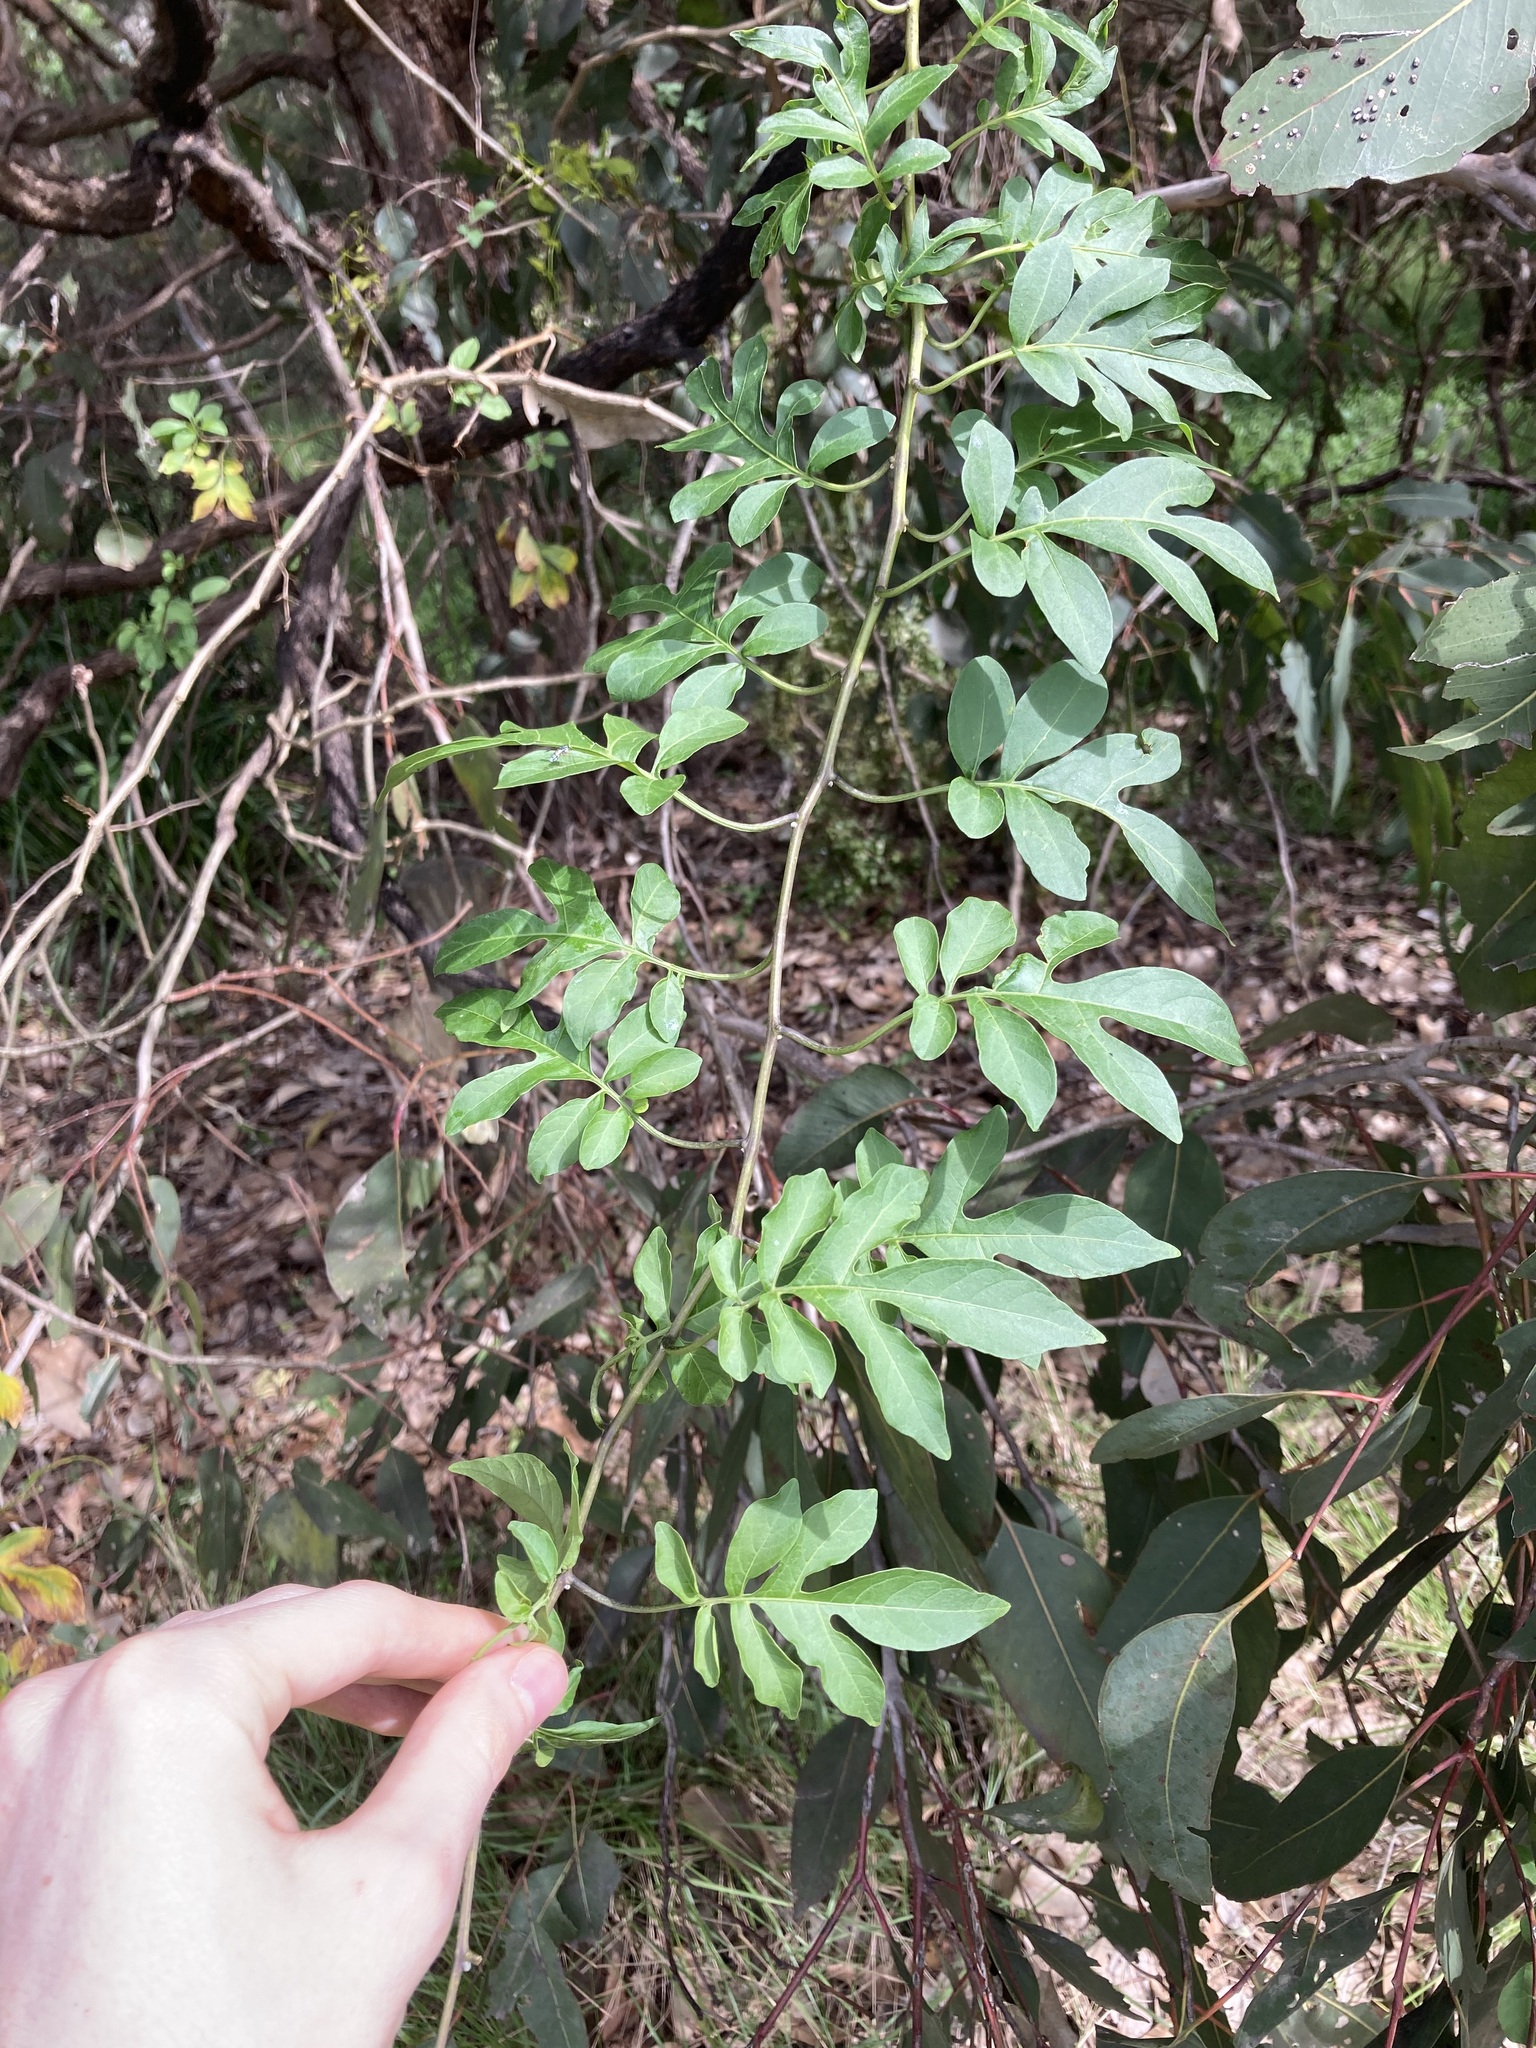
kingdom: Plantae
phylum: Tracheophyta
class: Magnoliopsida
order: Solanales
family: Solanaceae
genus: Solanum
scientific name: Solanum seaforthianum
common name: Brazilian nightshade
